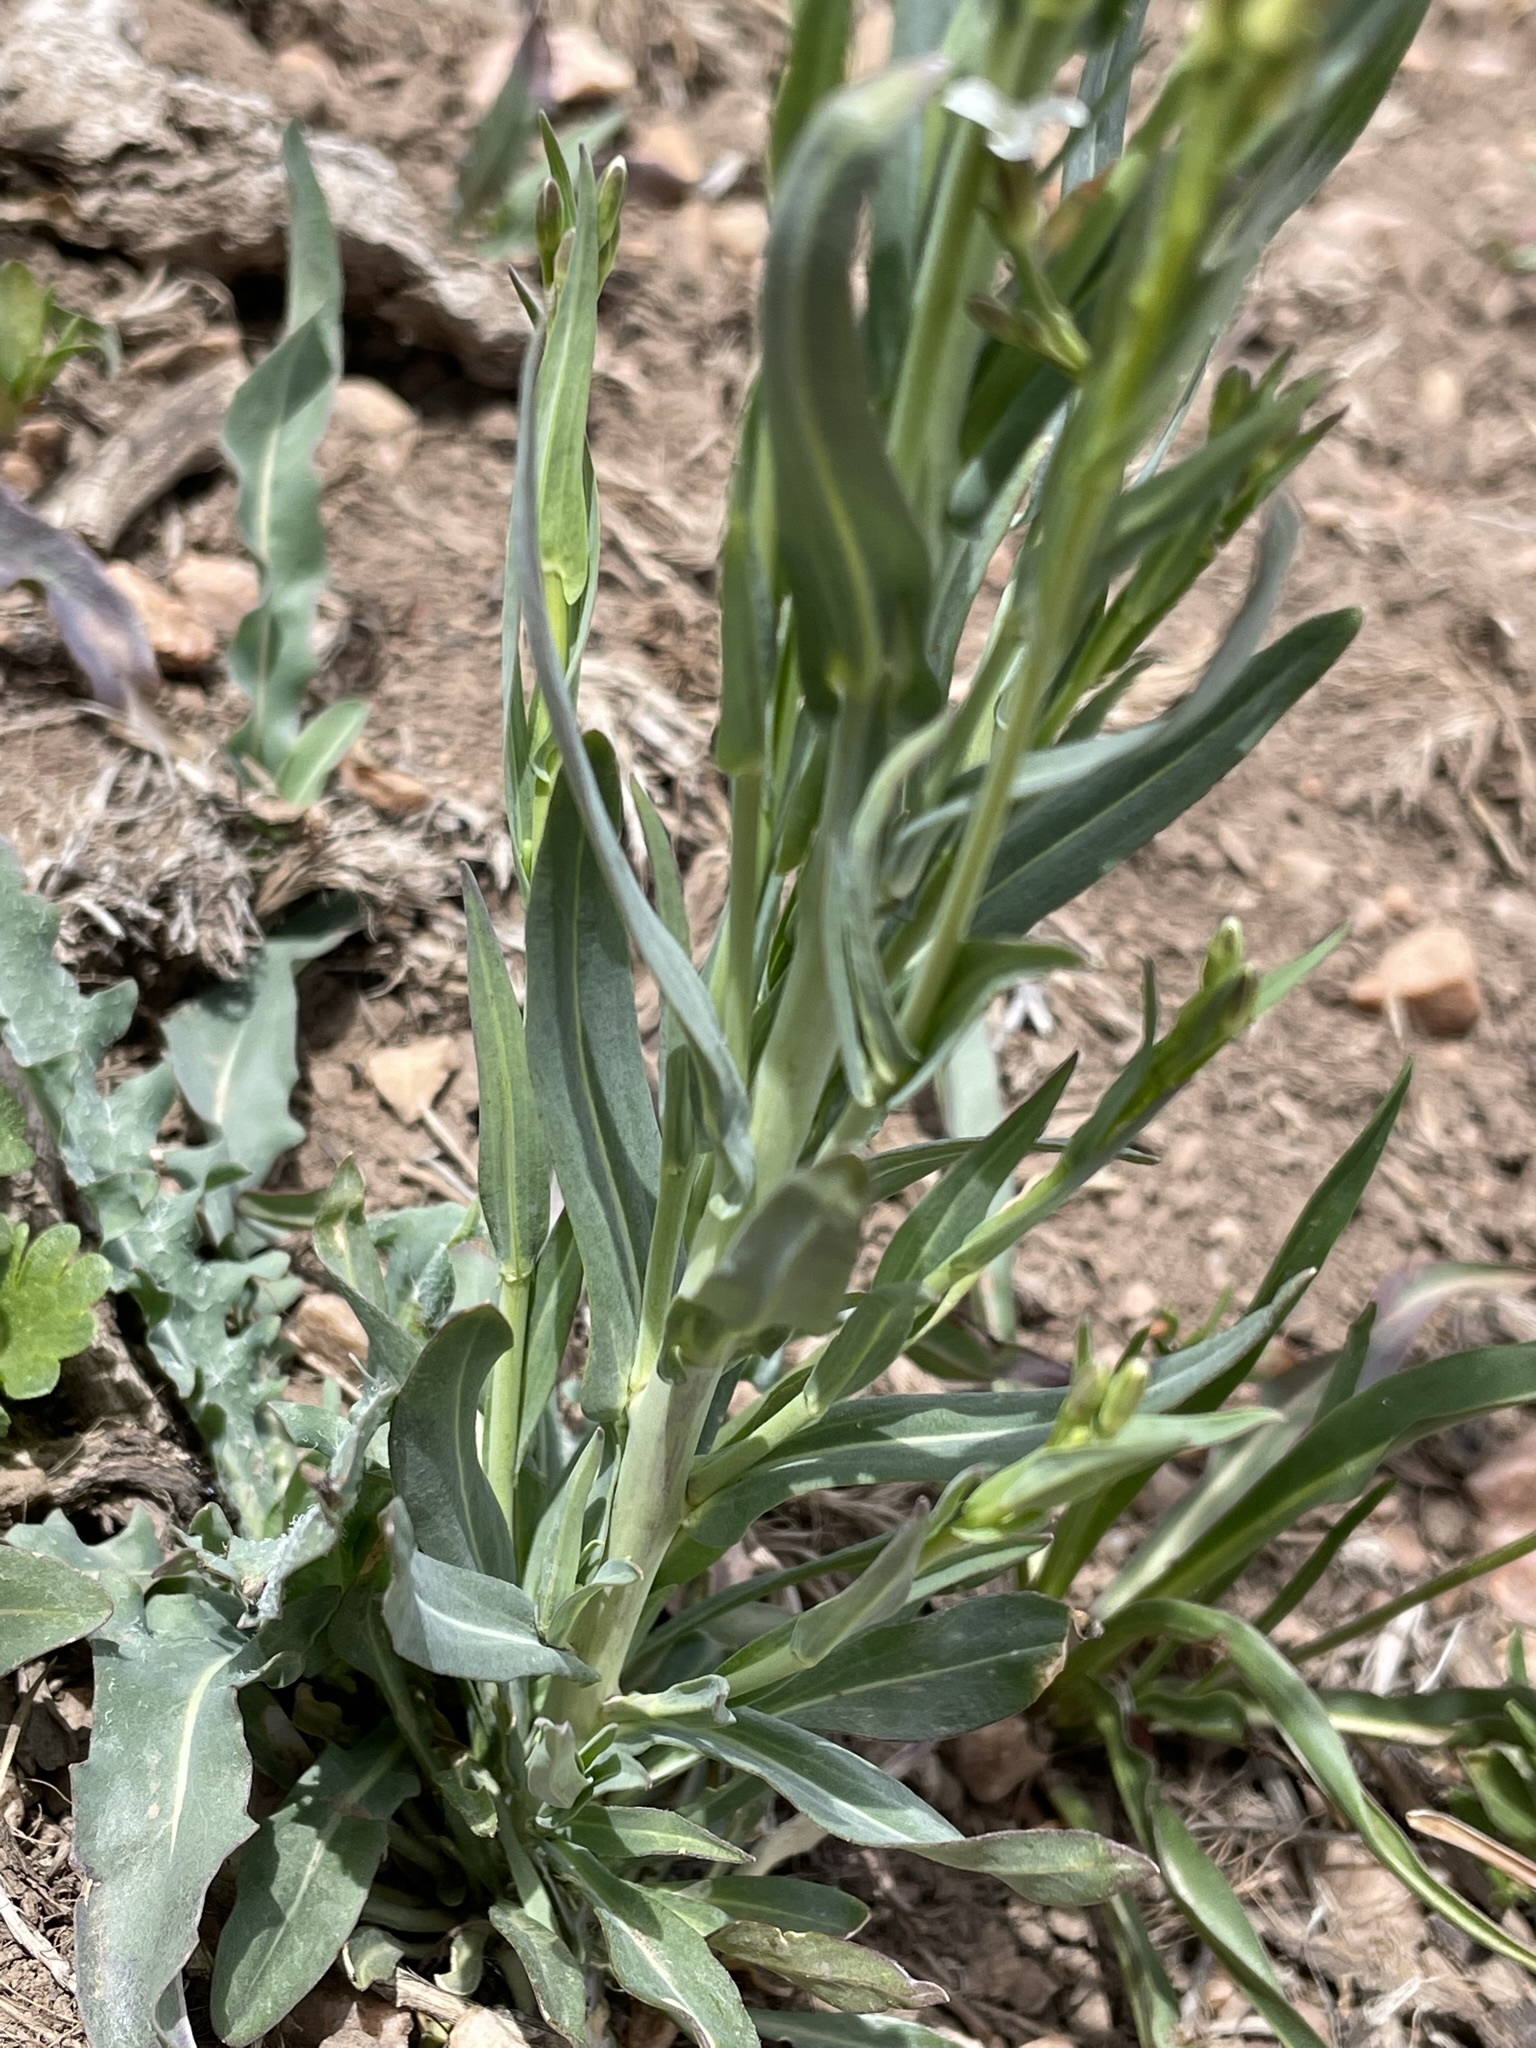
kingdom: Plantae
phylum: Tracheophyta
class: Magnoliopsida
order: Brassicales
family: Brassicaceae
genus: Turritis
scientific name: Turritis glabra
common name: Tower rockcress
